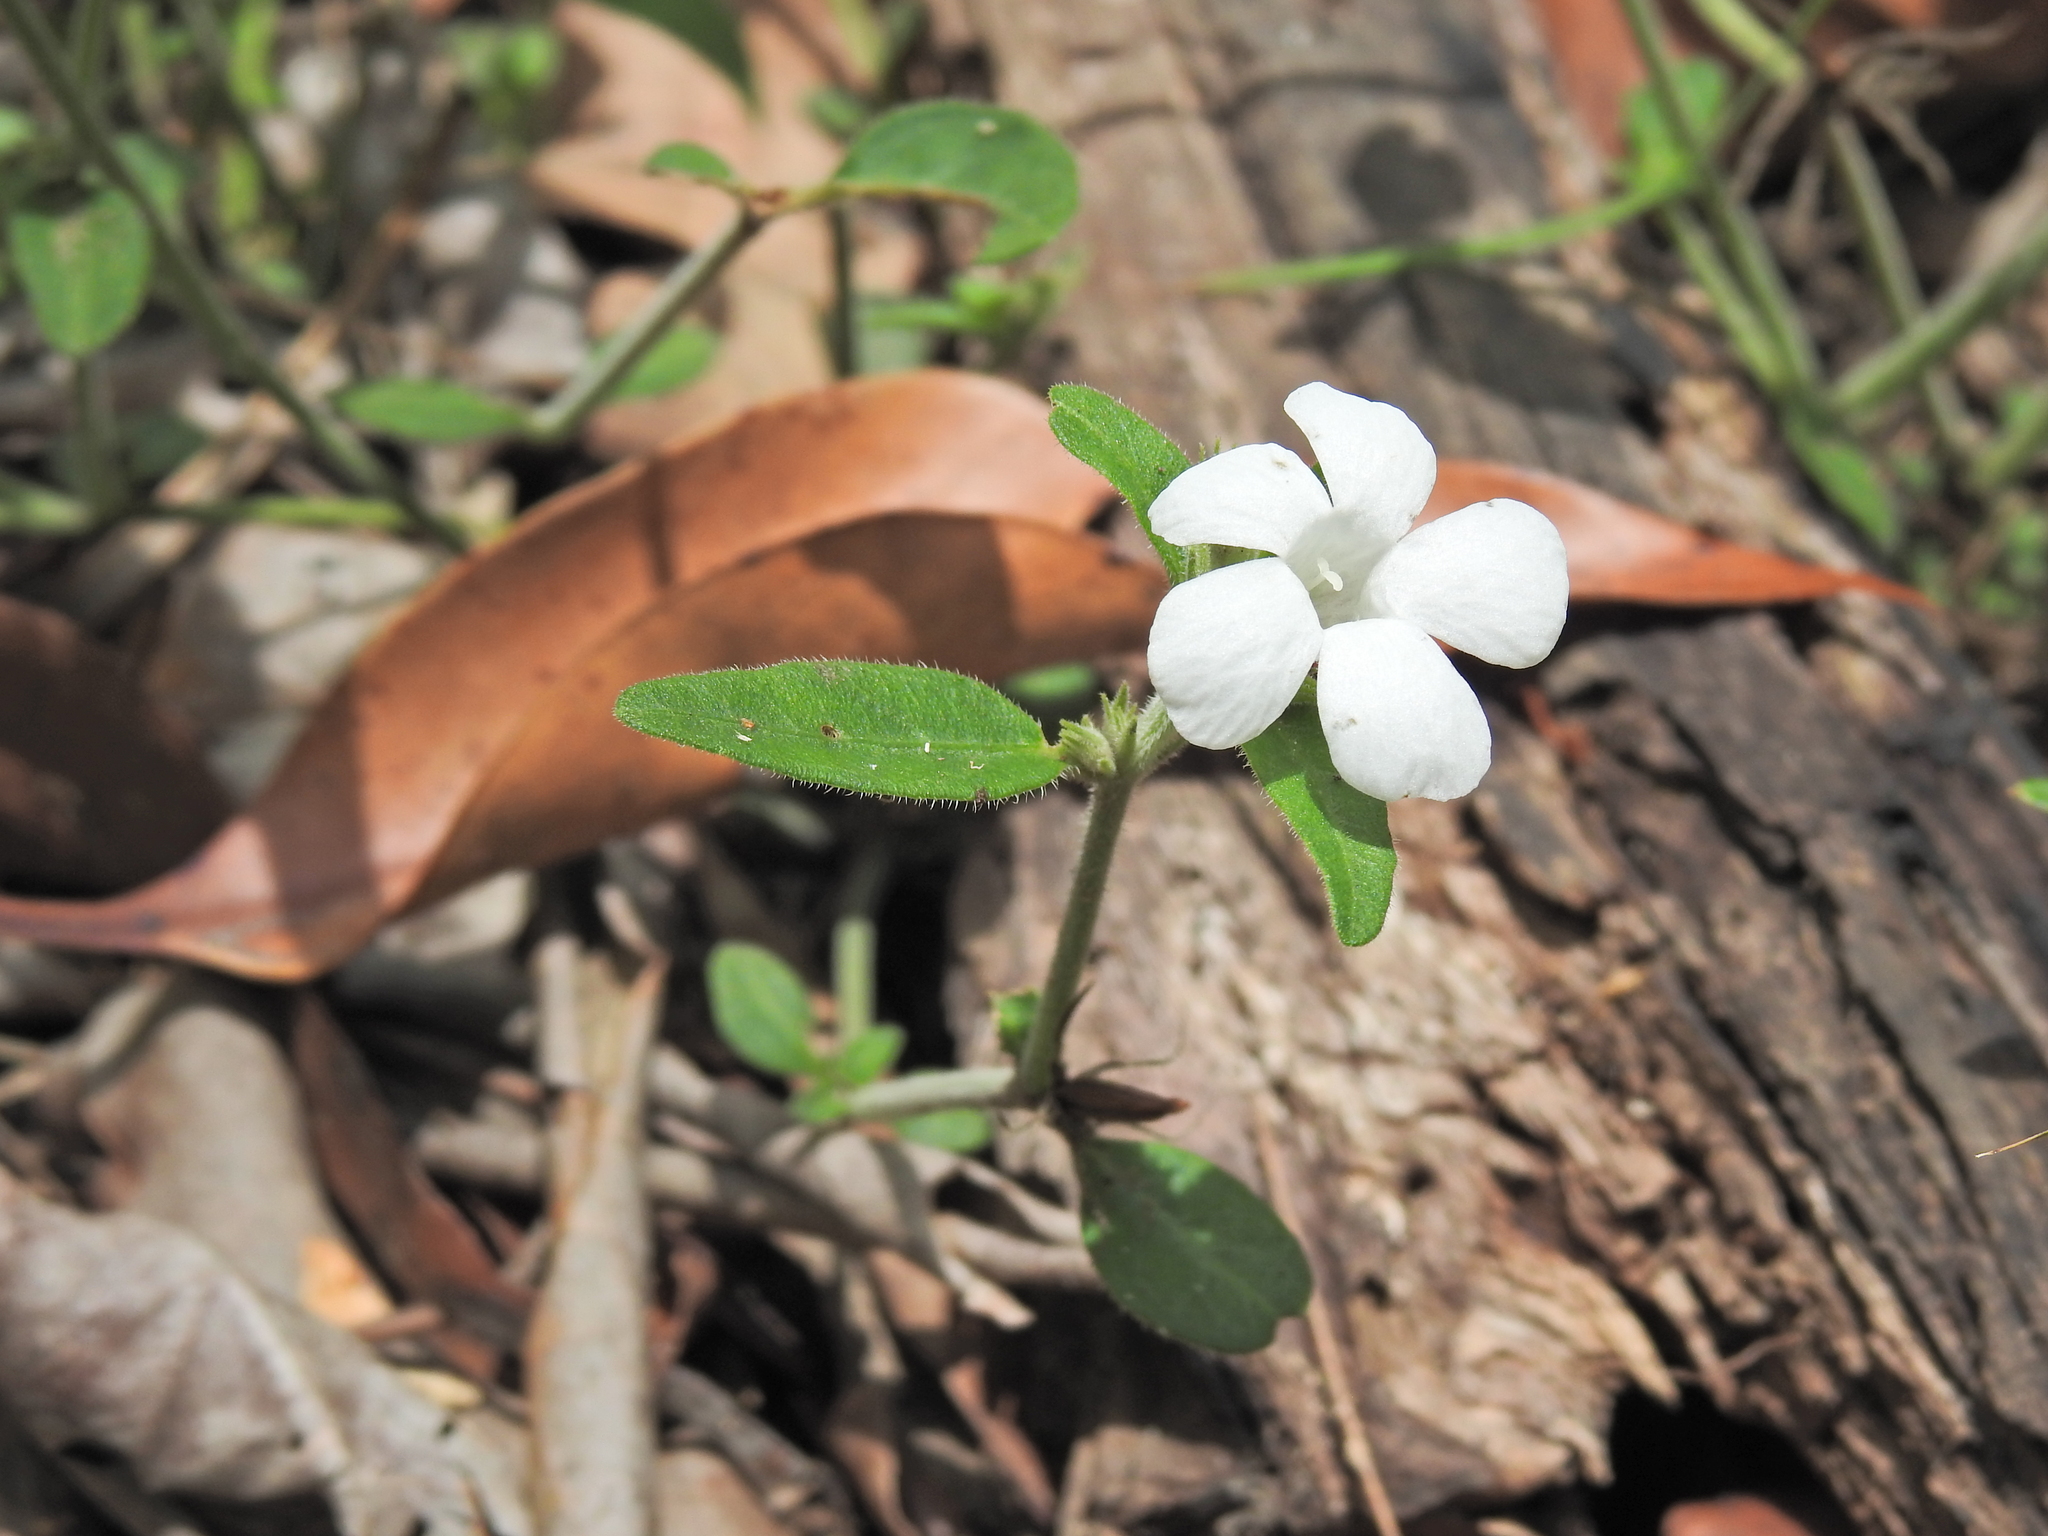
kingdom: Plantae
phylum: Tracheophyta
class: Magnoliopsida
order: Lamiales
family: Acanthaceae
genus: Brunoniella
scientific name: Brunoniella australis
